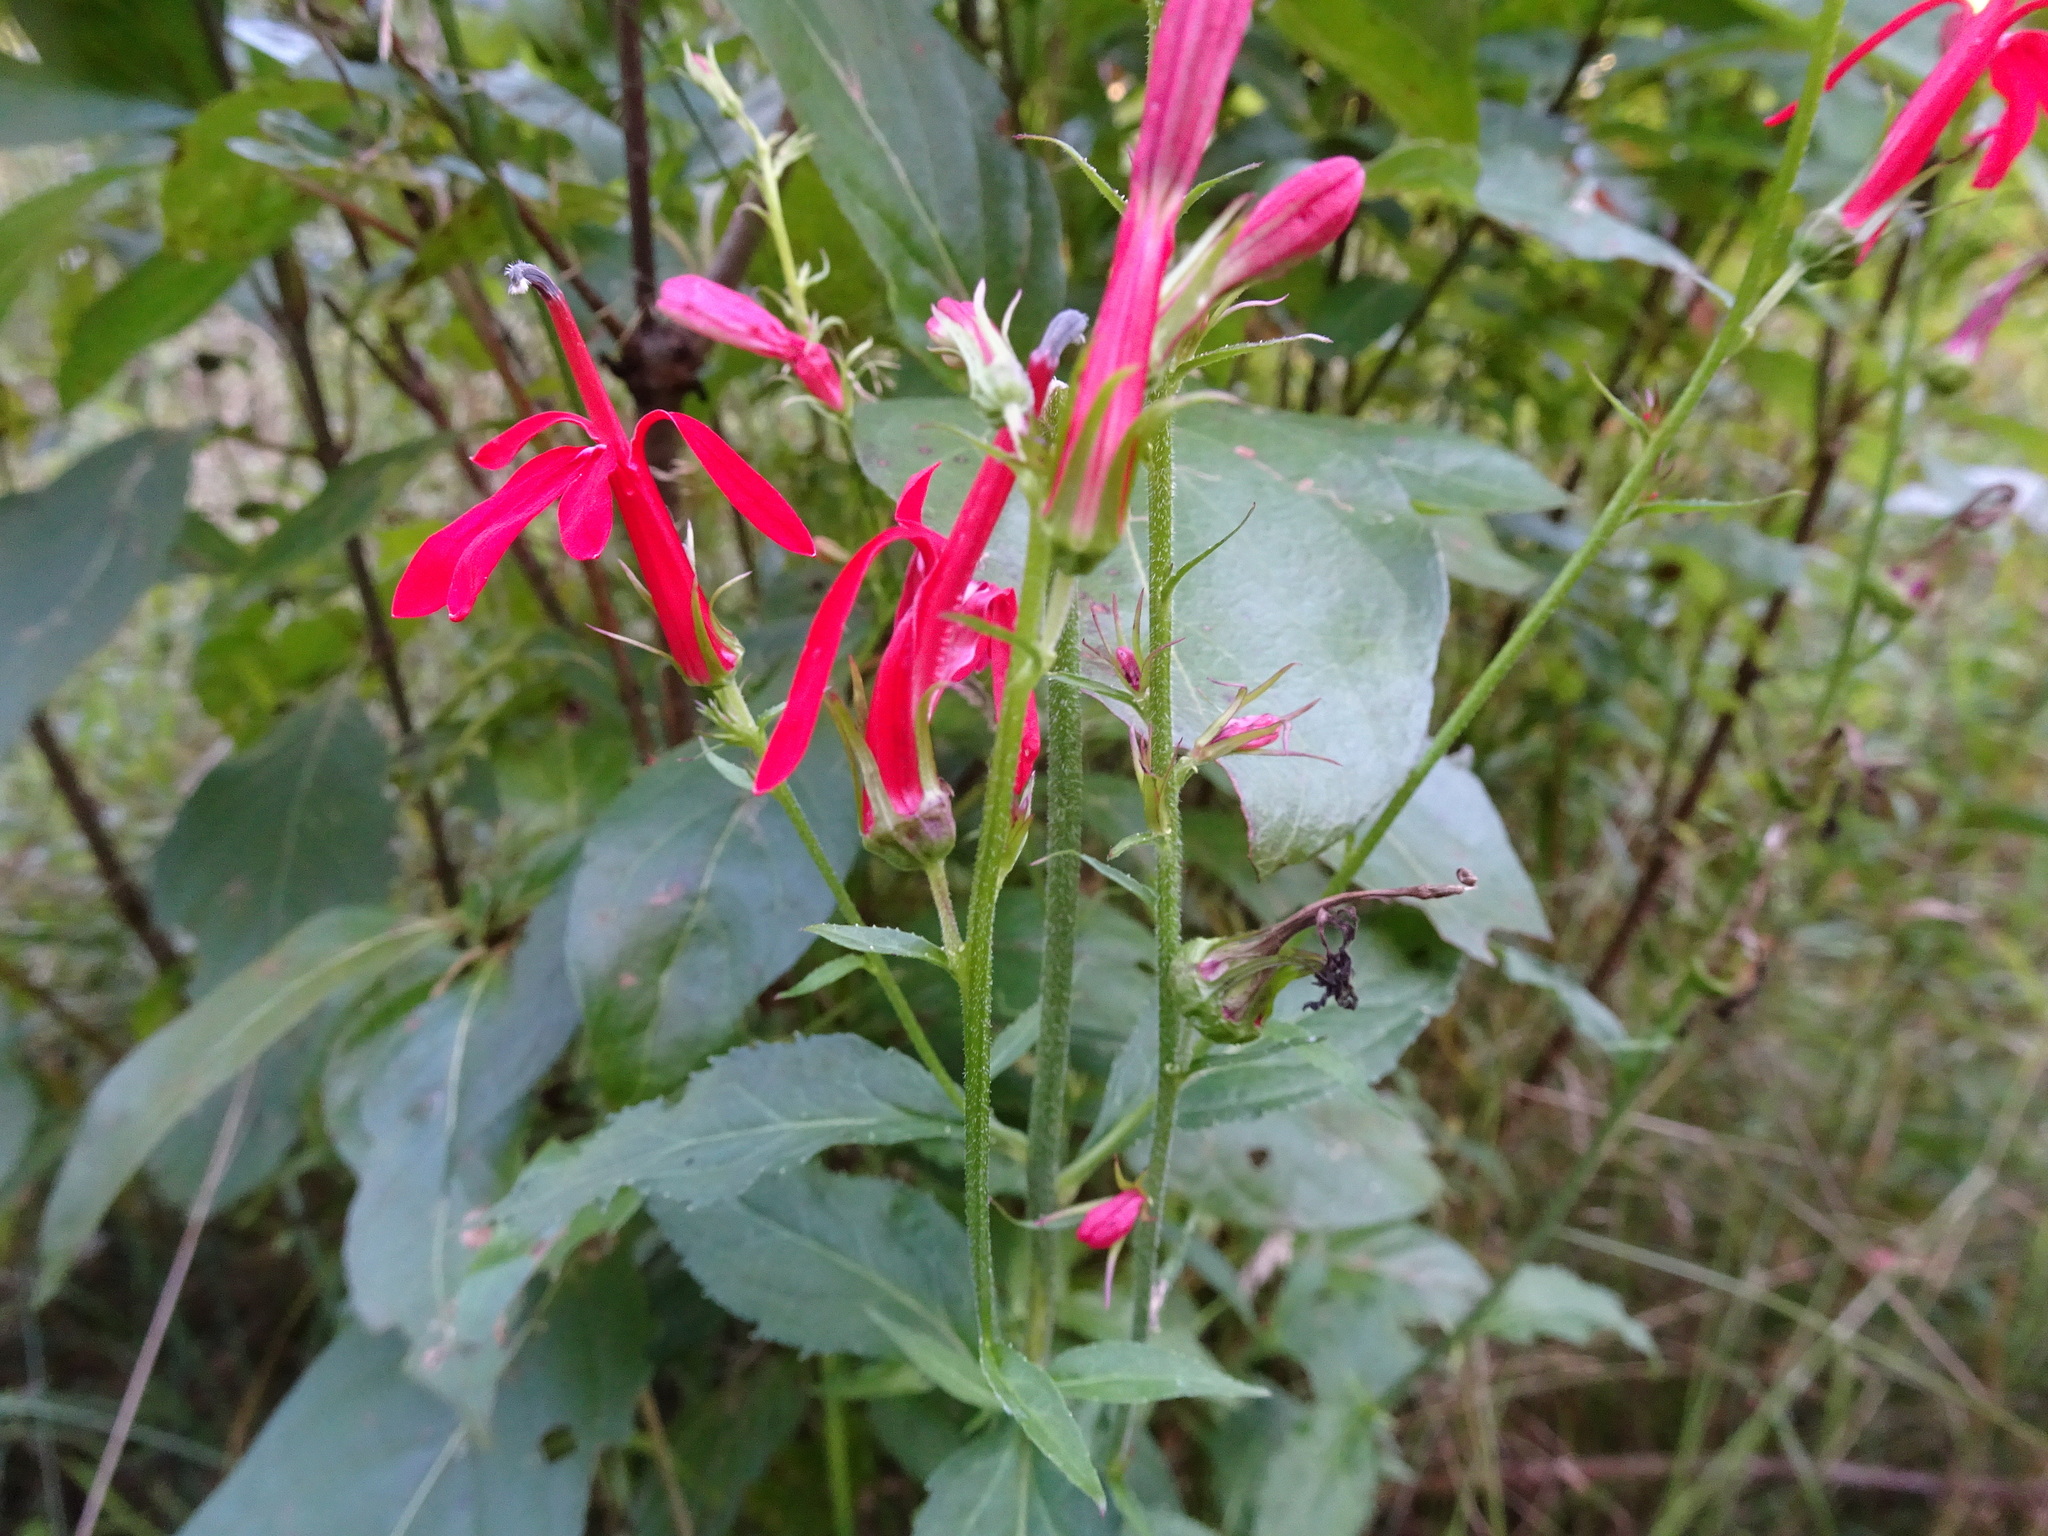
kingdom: Plantae
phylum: Tracheophyta
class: Magnoliopsida
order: Asterales
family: Campanulaceae
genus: Lobelia
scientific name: Lobelia cardinalis
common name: Cardinal flower
